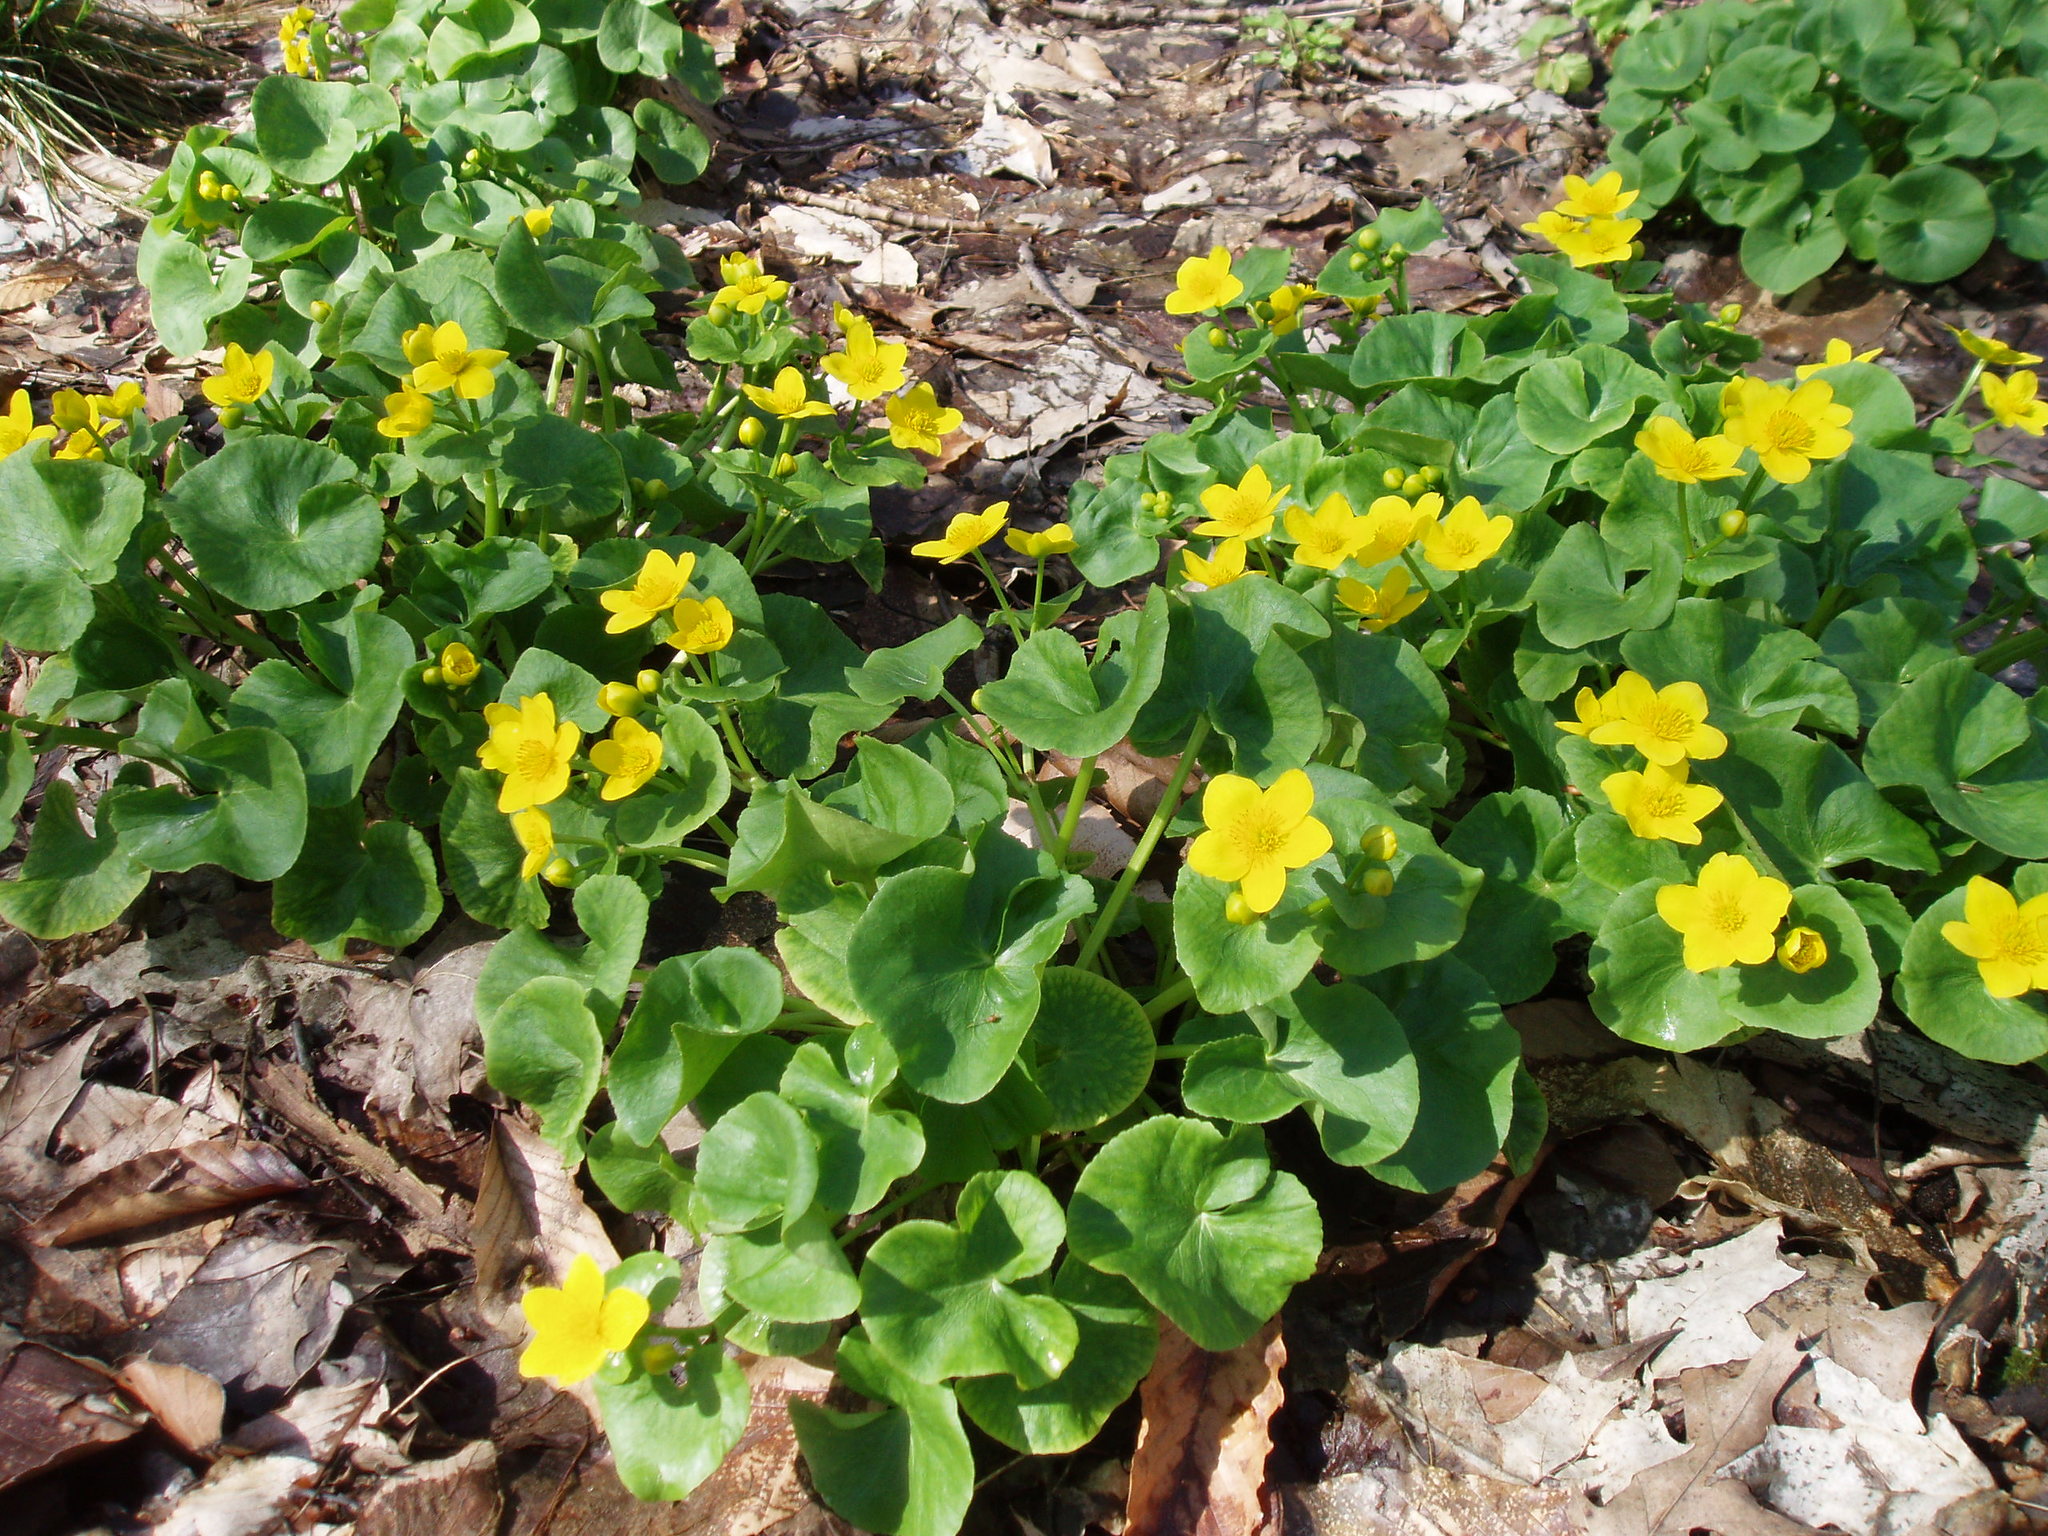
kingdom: Plantae
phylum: Tracheophyta
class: Magnoliopsida
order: Ranunculales
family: Ranunculaceae
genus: Caltha
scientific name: Caltha palustris
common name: Marsh marigold
